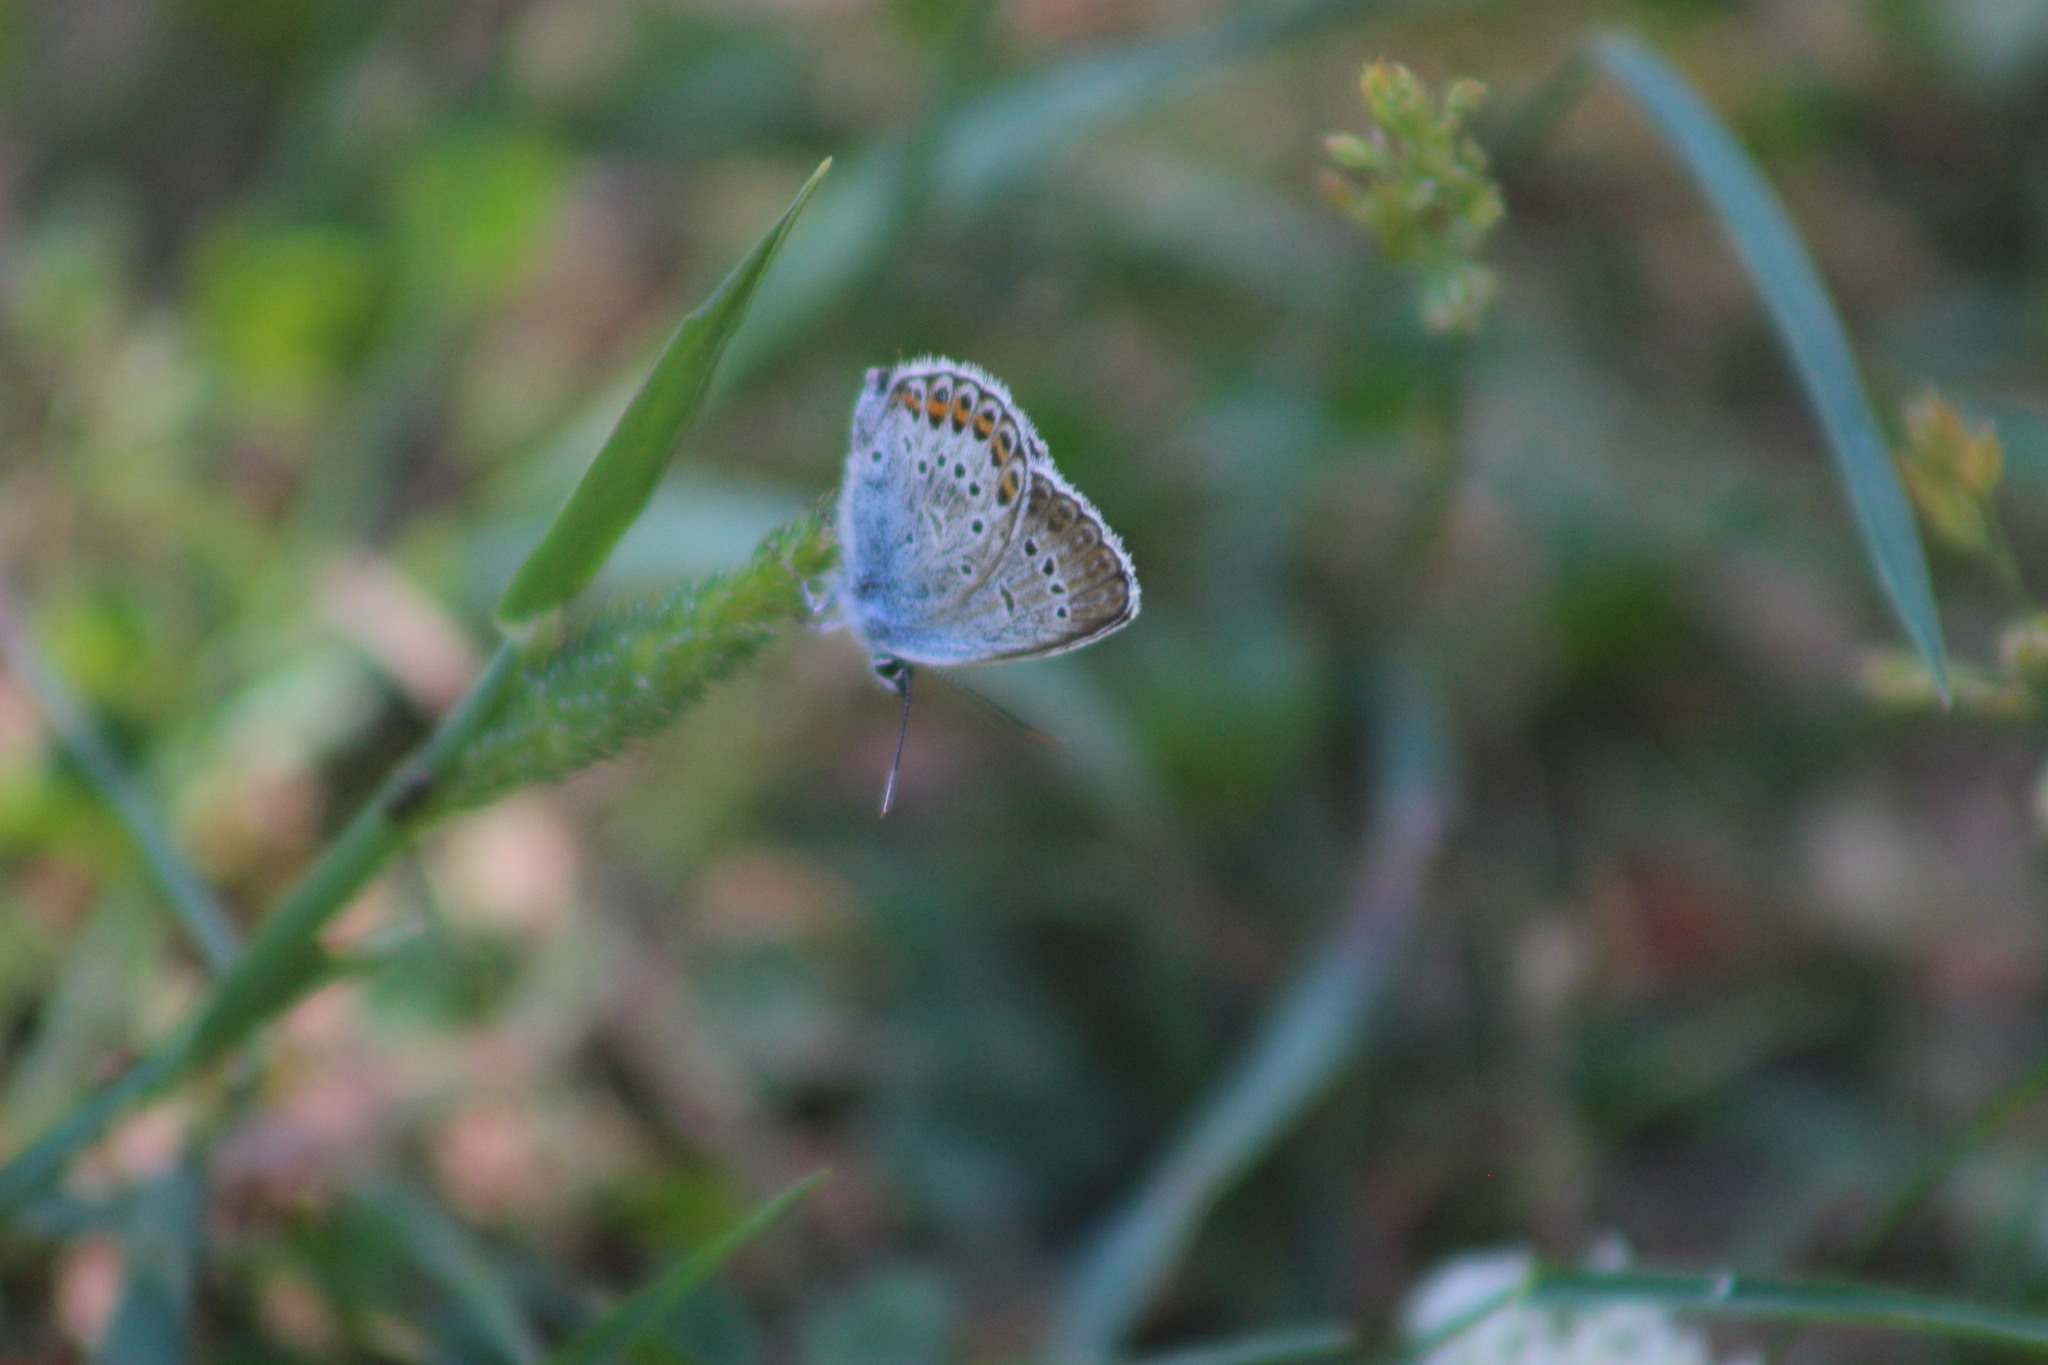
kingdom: Animalia
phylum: Arthropoda
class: Insecta
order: Lepidoptera
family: Lycaenidae
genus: Plebejus
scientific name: Plebejus argus
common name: Silver-studded blue
